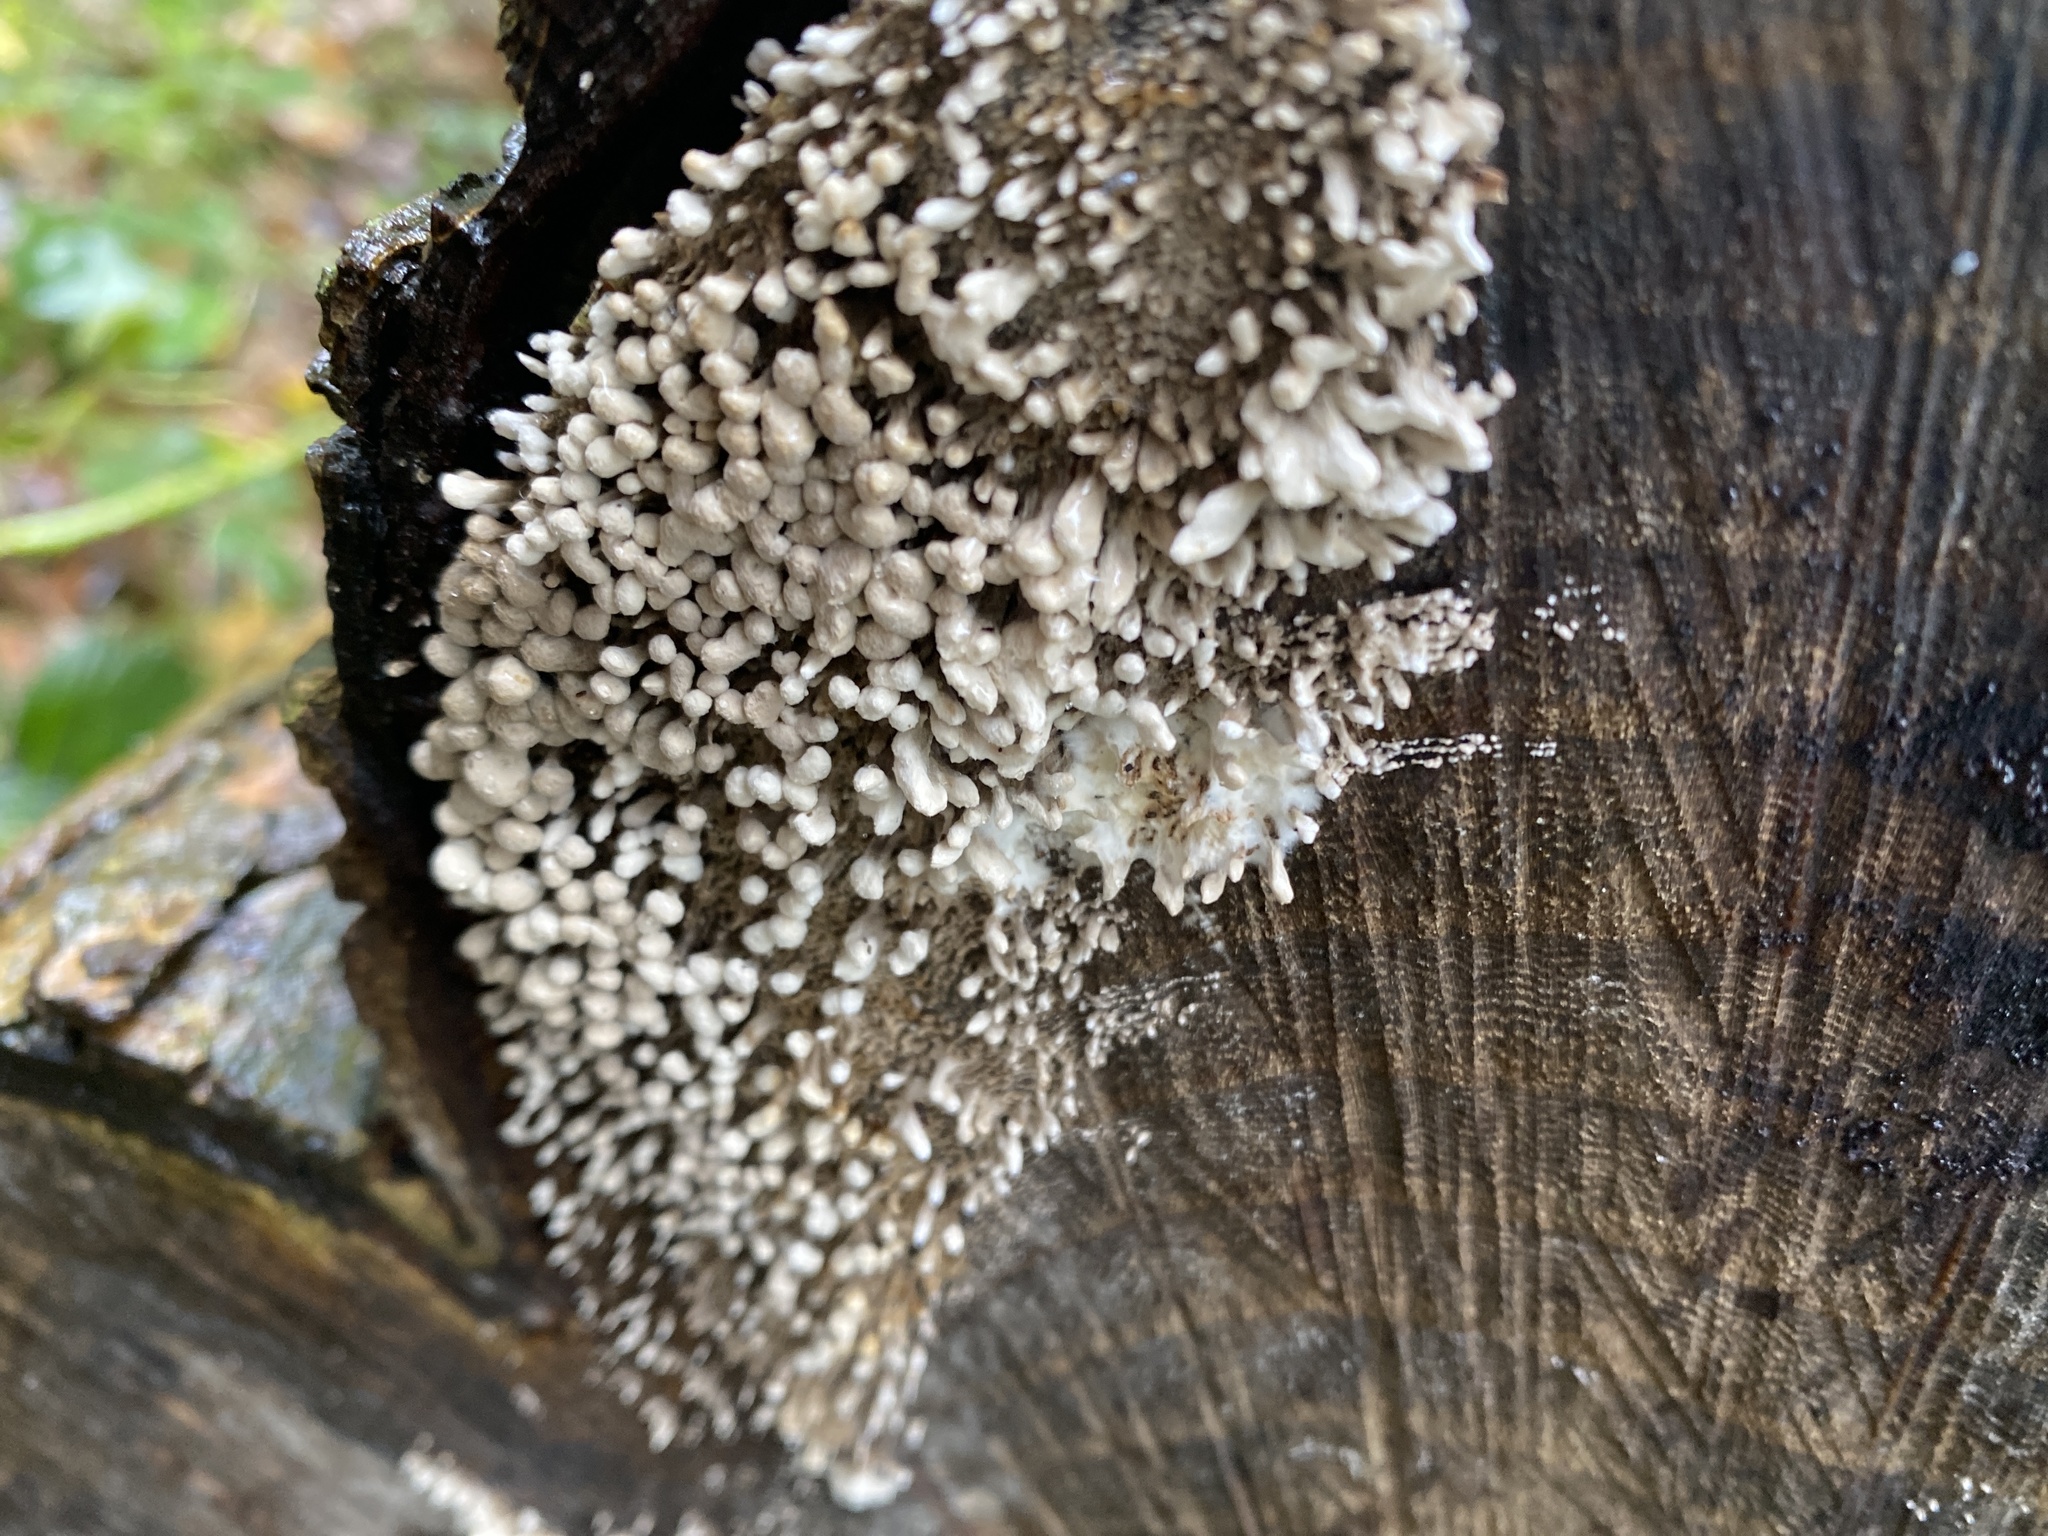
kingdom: Fungi
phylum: Ascomycota
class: Sordariomycetes
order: Xylariales
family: Xylariaceae
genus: Xylaria
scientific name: Xylaria hypoxylon
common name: Candle-snuff fungus
